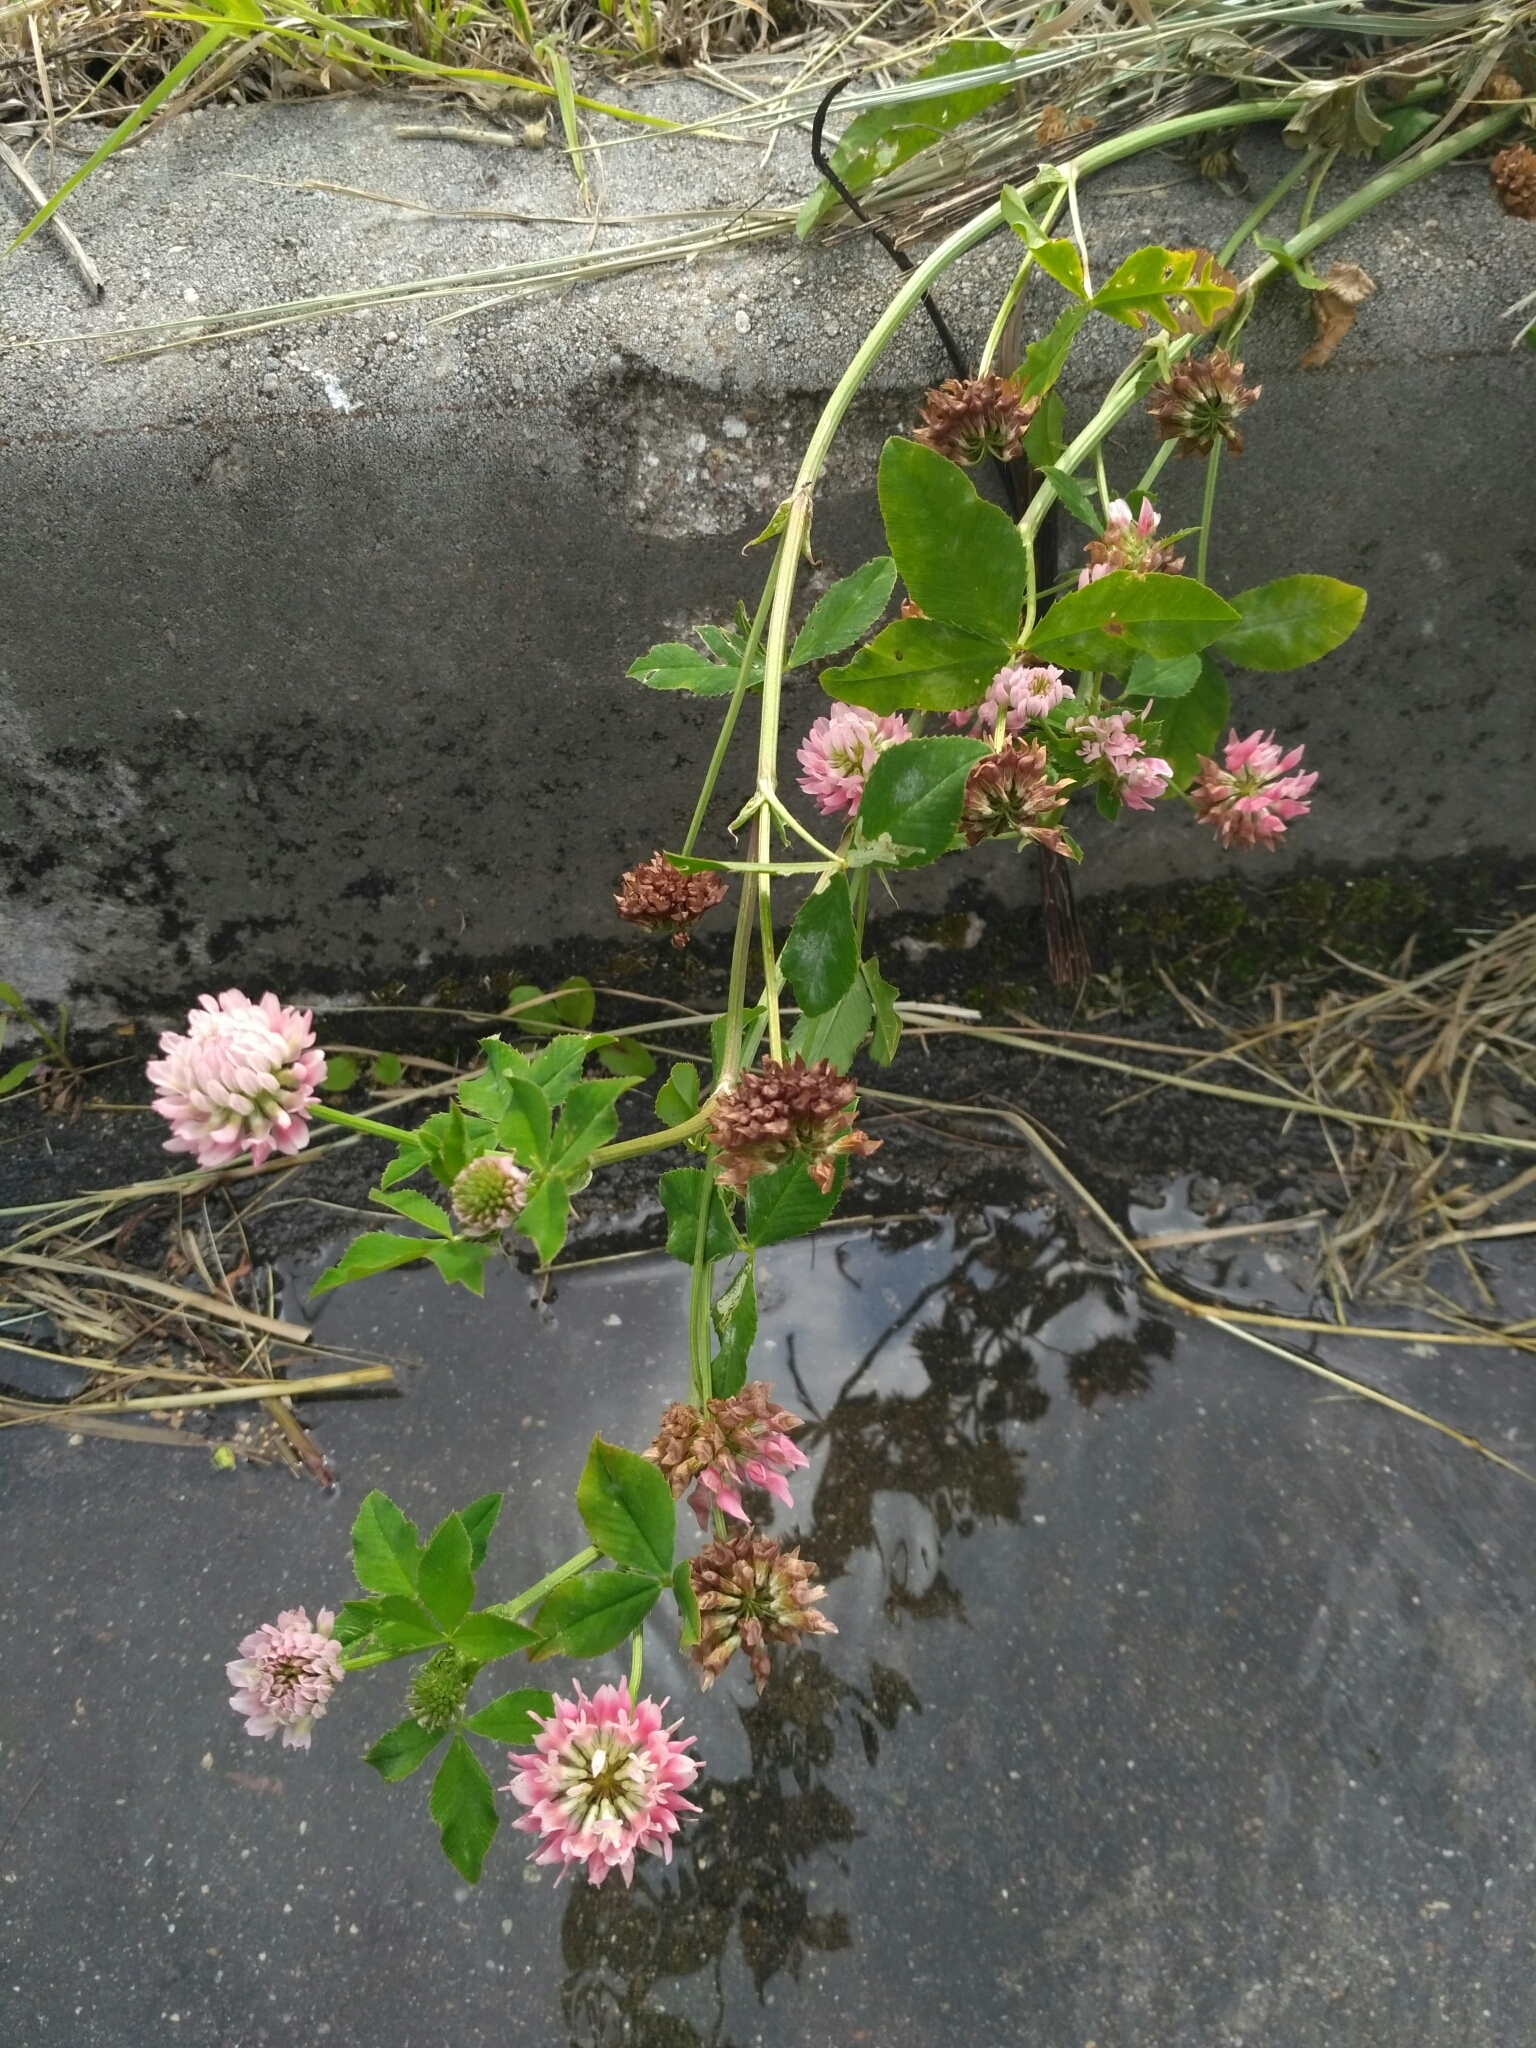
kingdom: Plantae
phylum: Tracheophyta
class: Magnoliopsida
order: Fabales
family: Fabaceae
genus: Trifolium
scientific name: Trifolium hybridum
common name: Alsike clover
